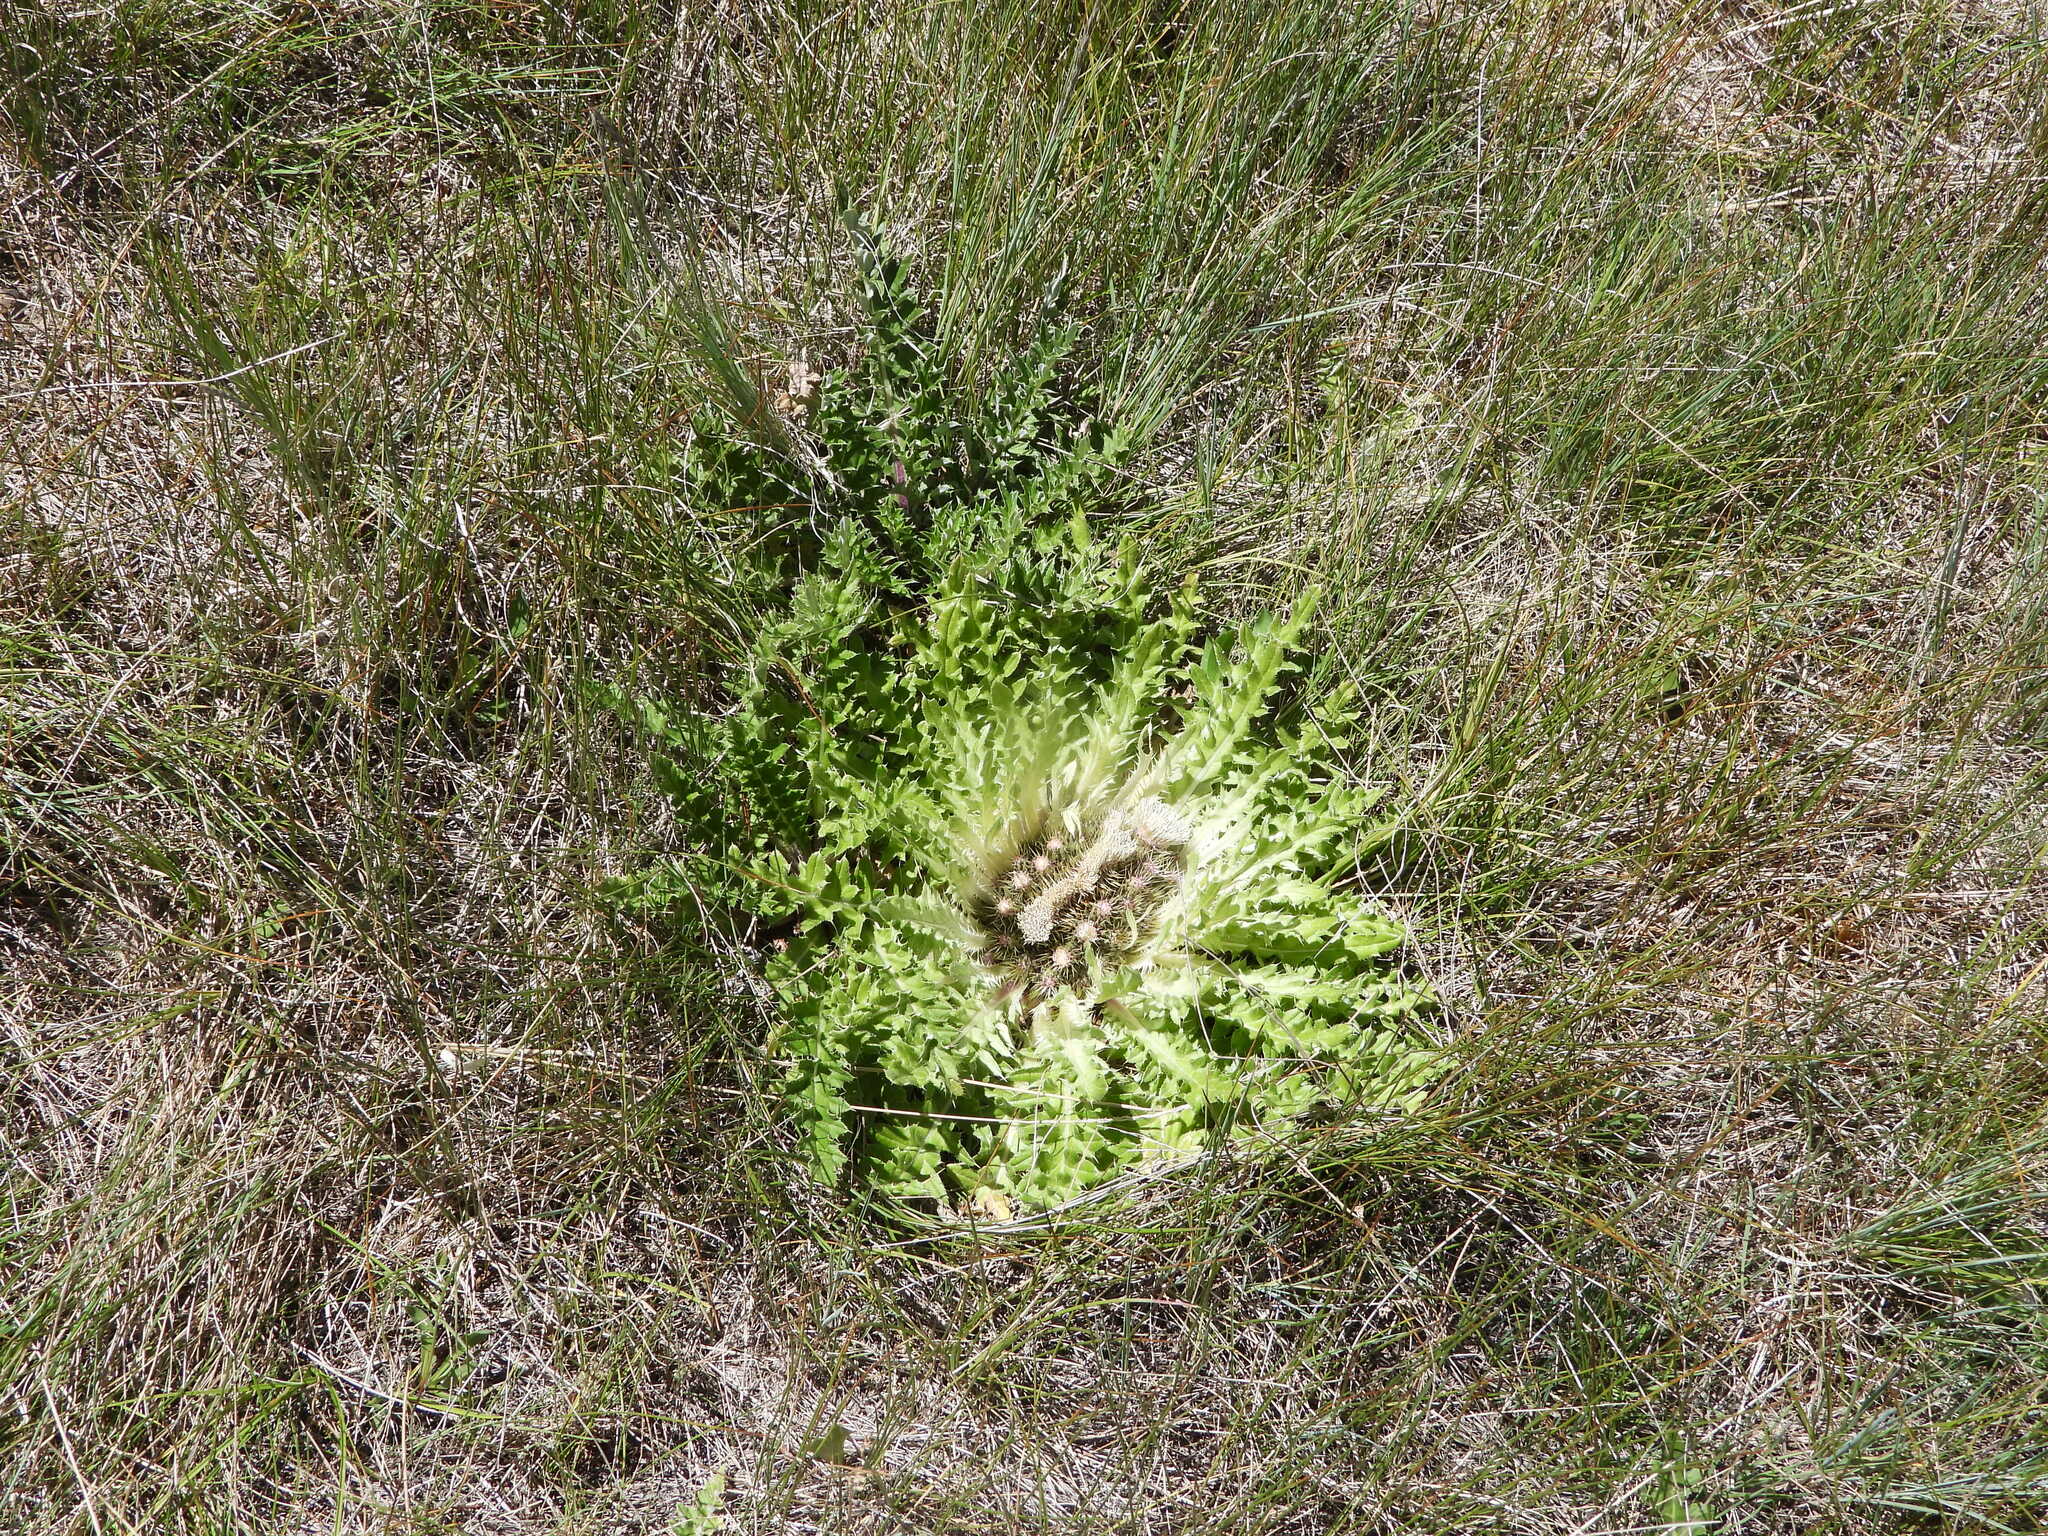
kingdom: Plantae
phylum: Tracheophyta
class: Magnoliopsida
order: Asterales
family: Asteraceae
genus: Cirsium
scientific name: Cirsium tioganum
